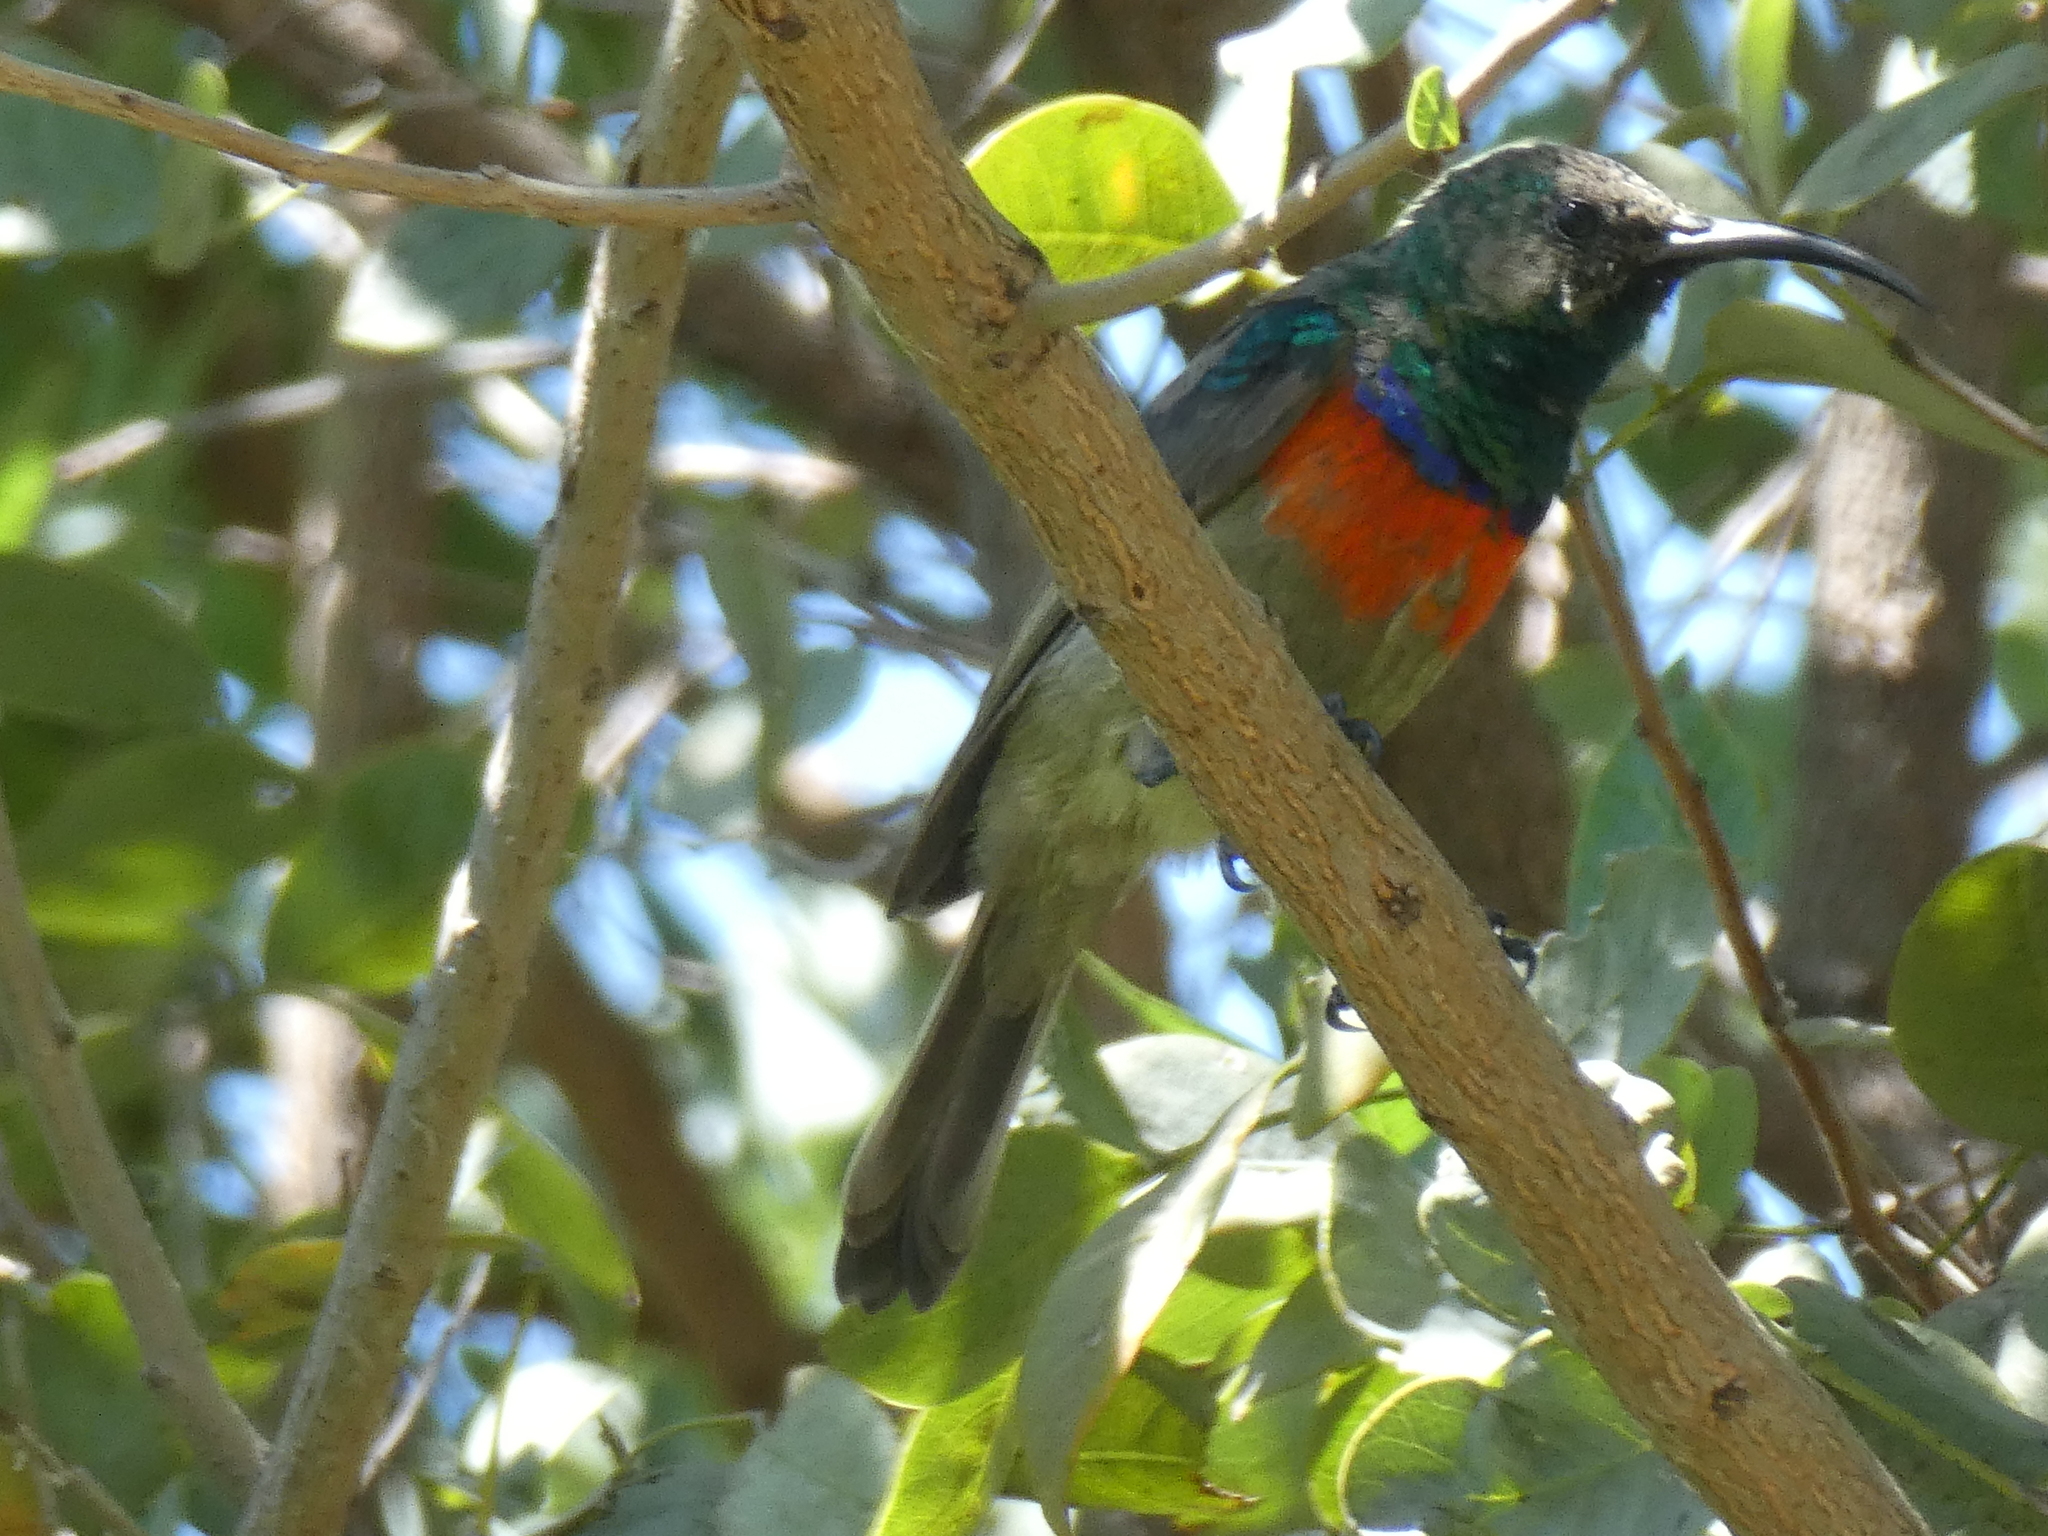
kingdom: Animalia
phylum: Chordata
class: Aves
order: Passeriformes
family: Nectariniidae
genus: Cinnyris
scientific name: Cinnyris afer
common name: Greater double-collared sunbird
